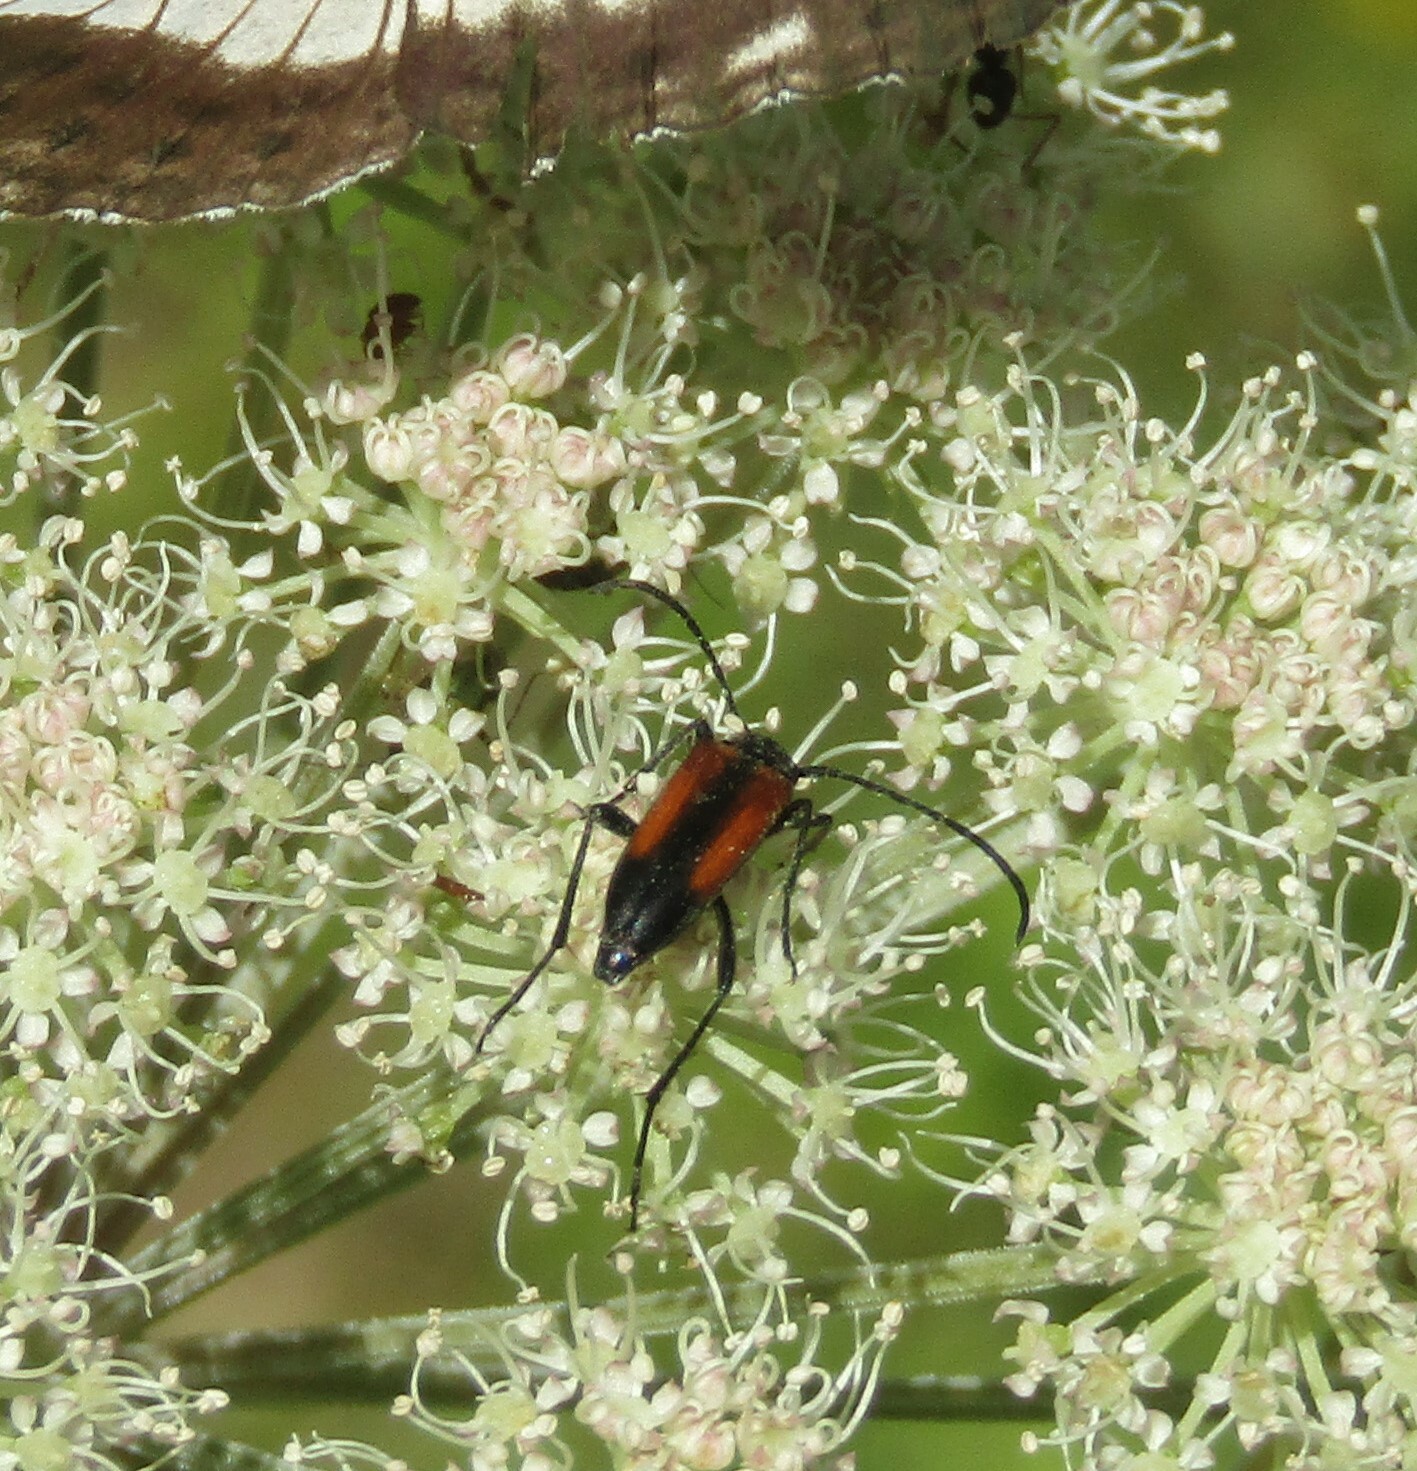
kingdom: Animalia
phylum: Arthropoda
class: Insecta
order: Coleoptera
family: Cerambycidae
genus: Stenurella
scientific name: Stenurella melanura
